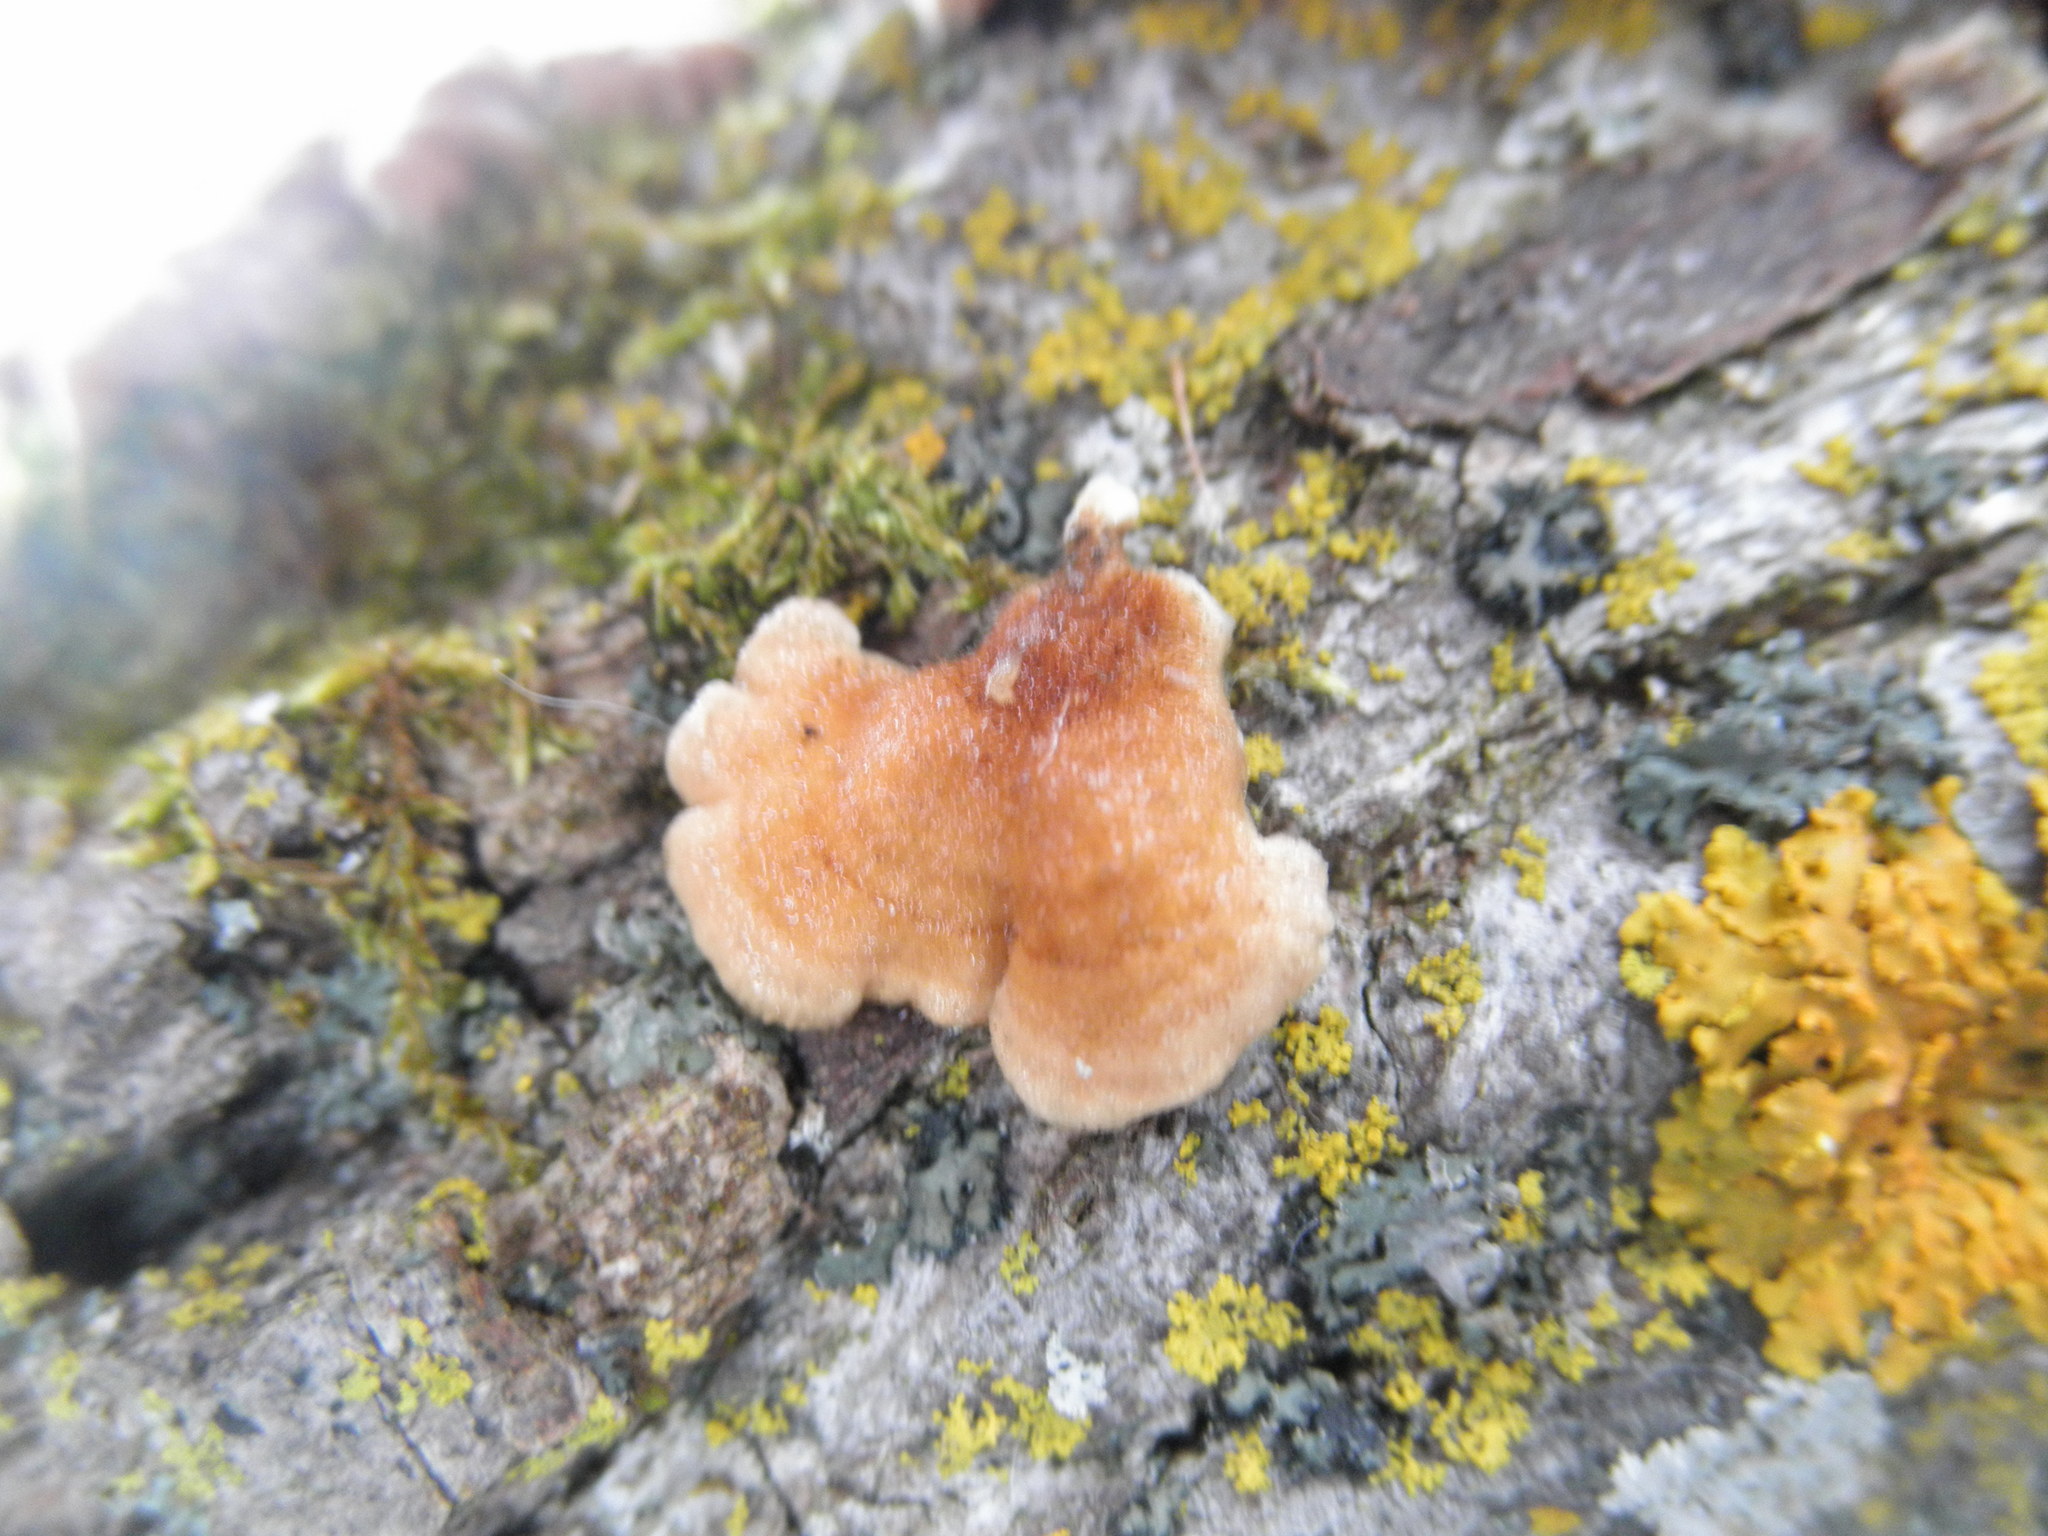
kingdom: Fungi
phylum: Basidiomycota
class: Agaricomycetes
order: Amylocorticiales
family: Amylocorticiaceae
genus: Plicaturopsis
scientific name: Plicaturopsis crispa
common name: Crimped gill
